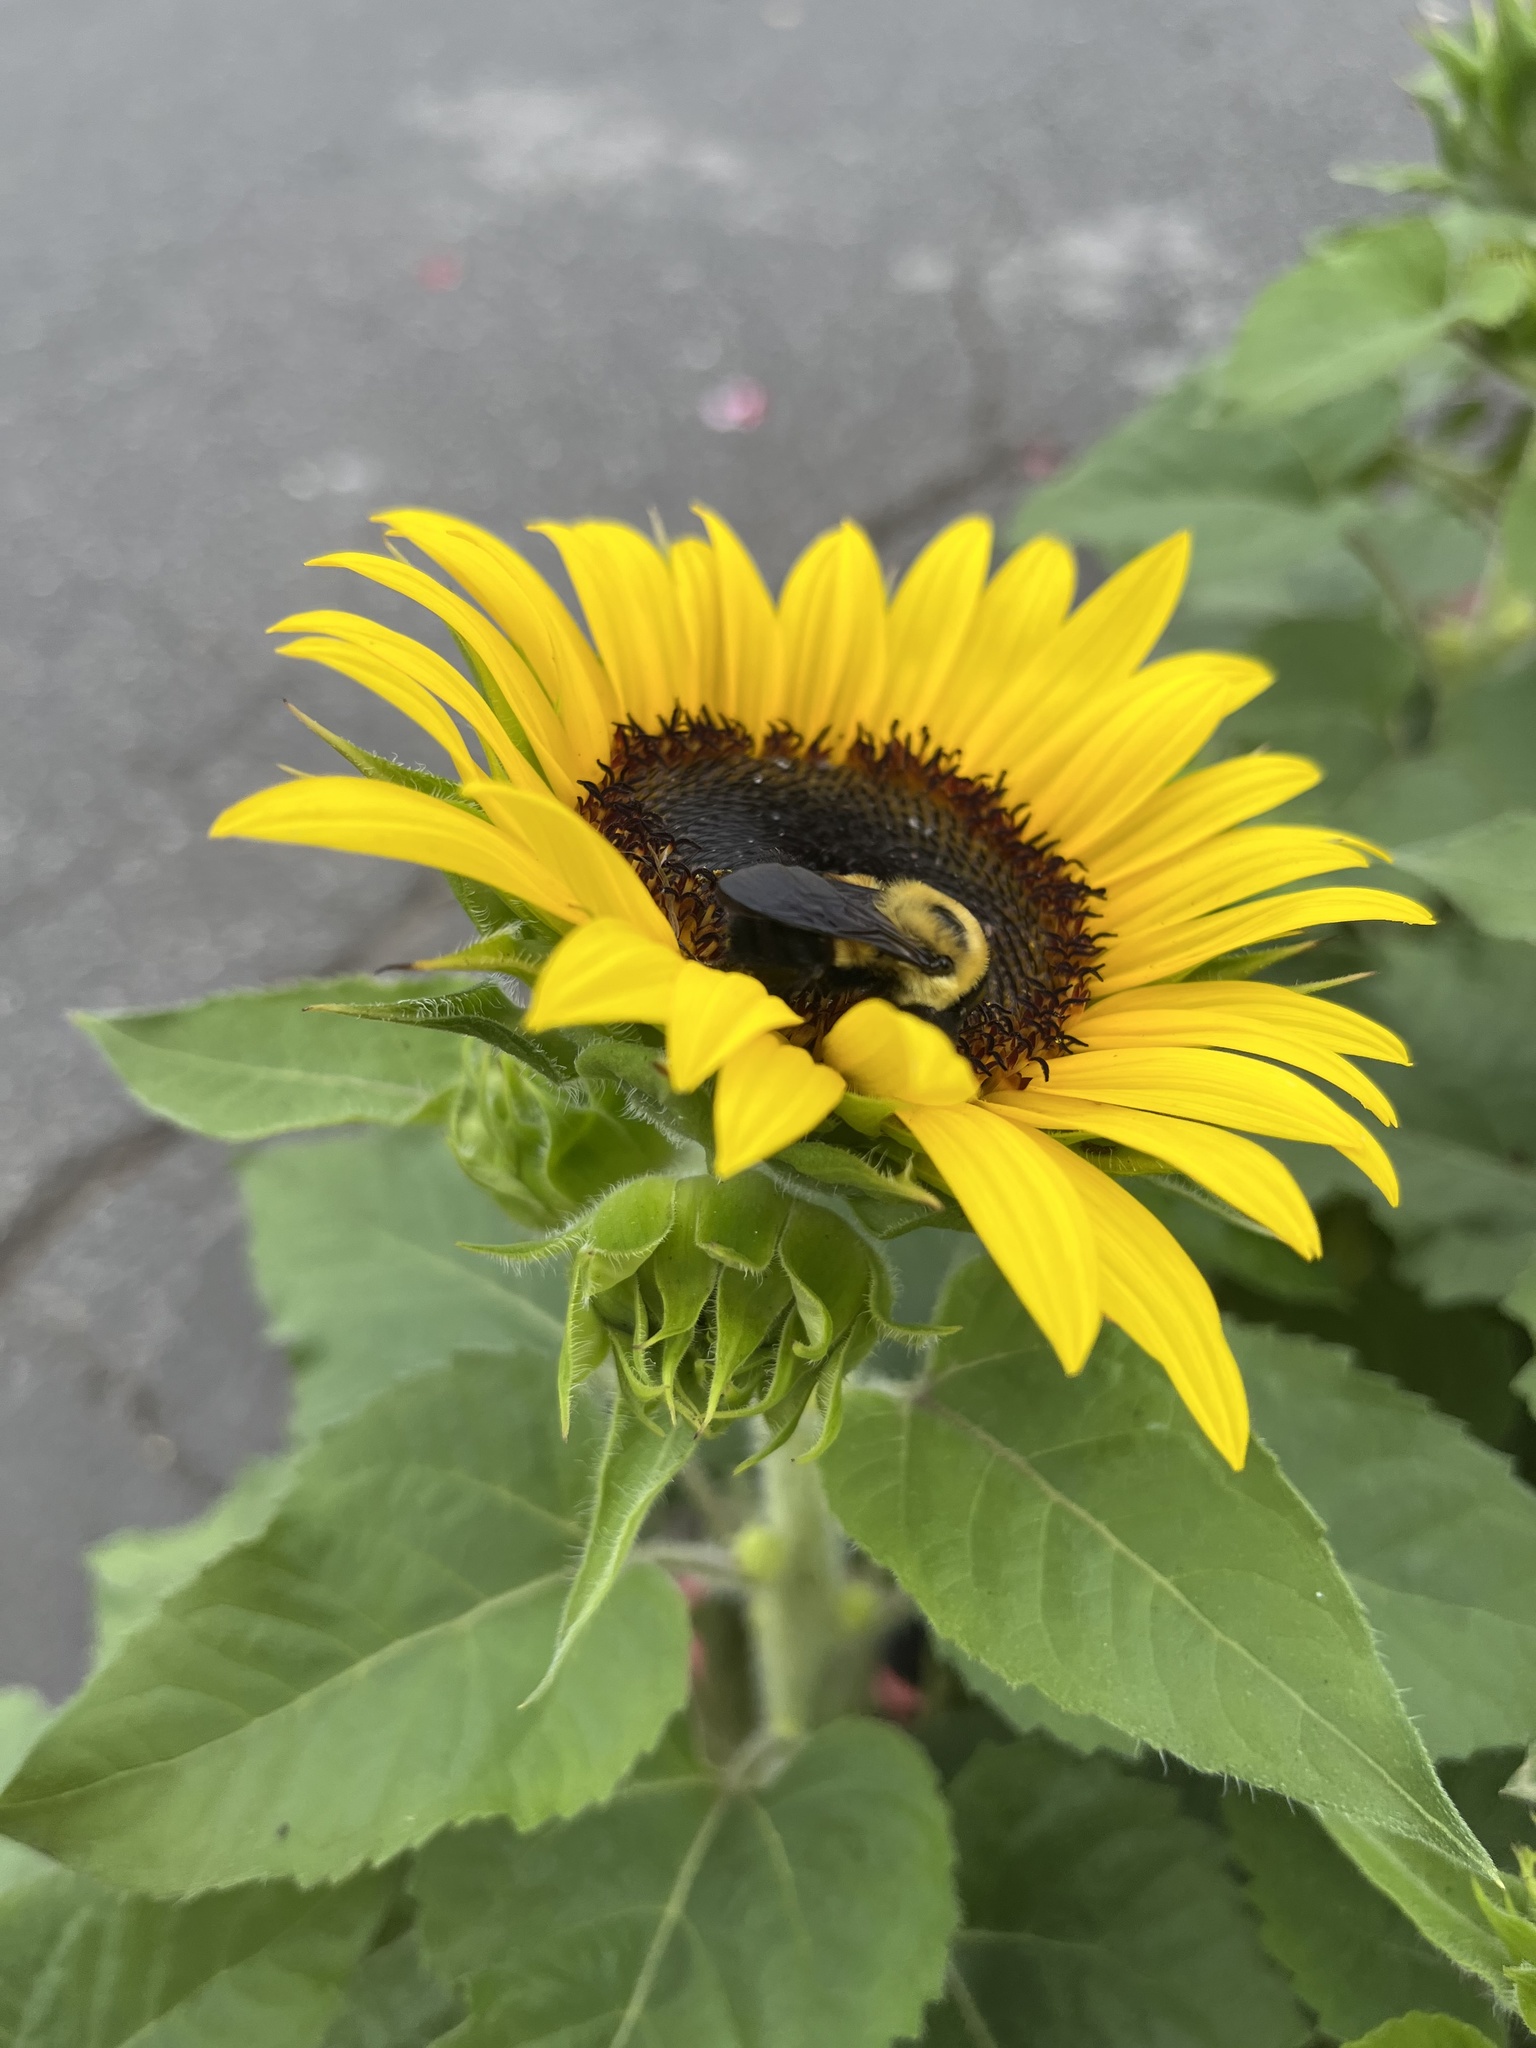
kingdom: Animalia
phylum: Arthropoda
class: Insecta
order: Hymenoptera
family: Apidae
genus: Bombus
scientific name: Bombus griseocollis
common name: Brown-belted bumble bee
